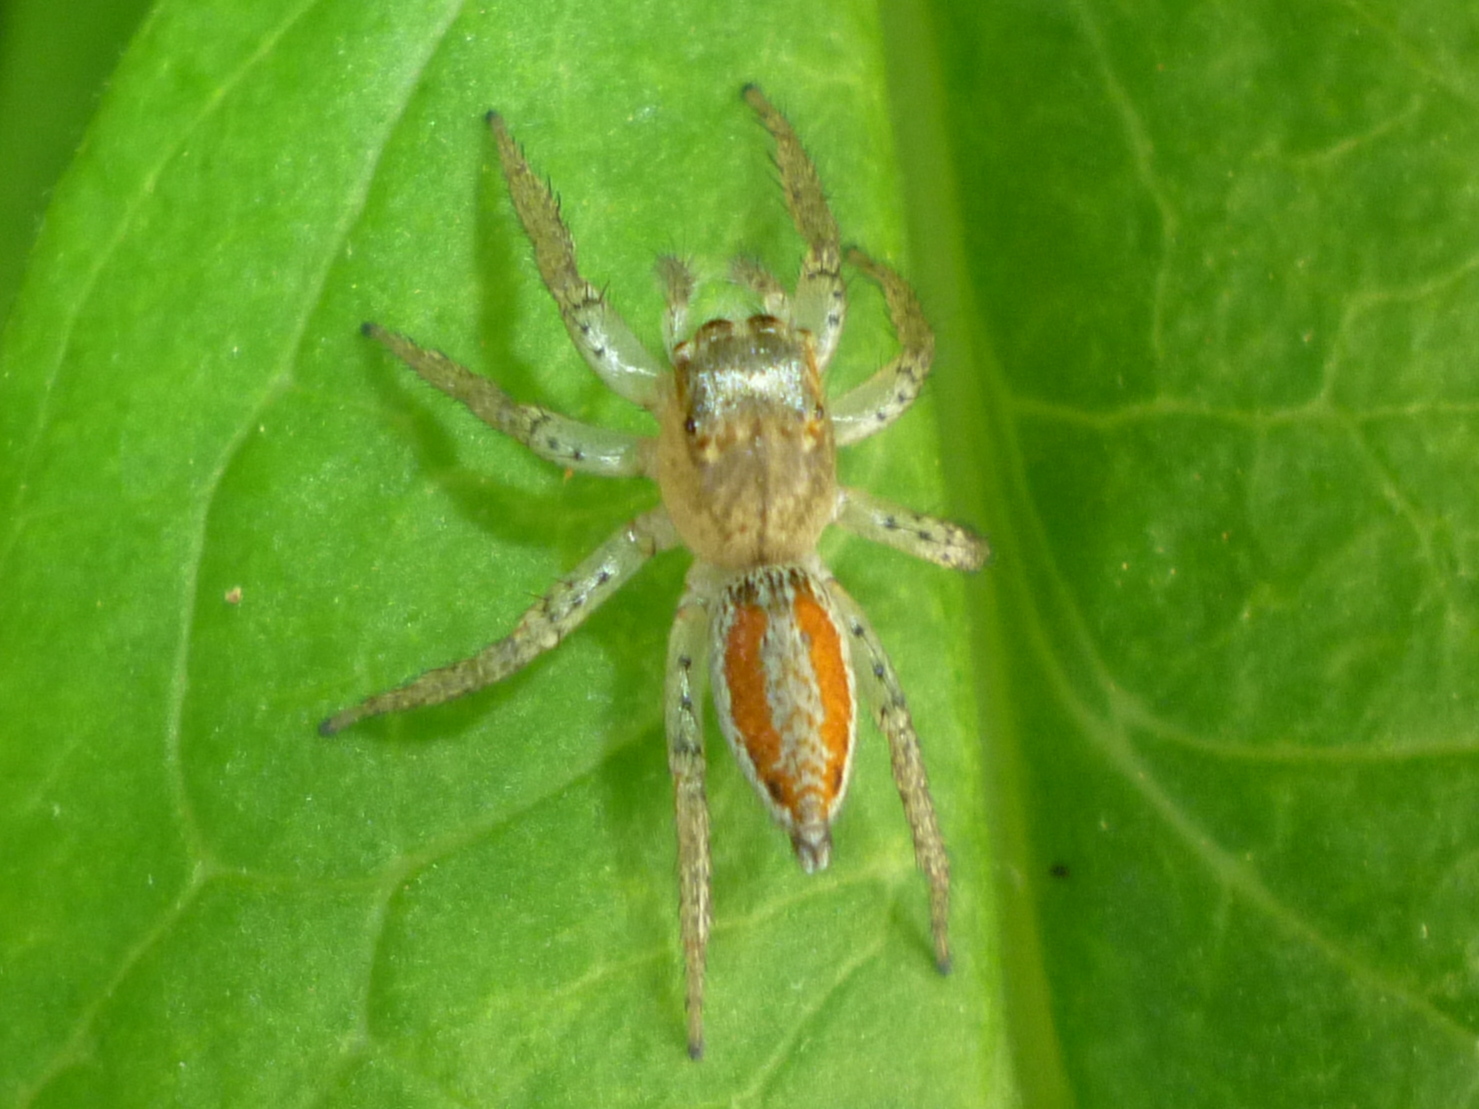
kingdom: Animalia
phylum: Arthropoda
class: Arachnida
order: Araneae
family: Salticidae
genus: Maevia
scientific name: Maevia inclemens
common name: Dimorphic jumper
